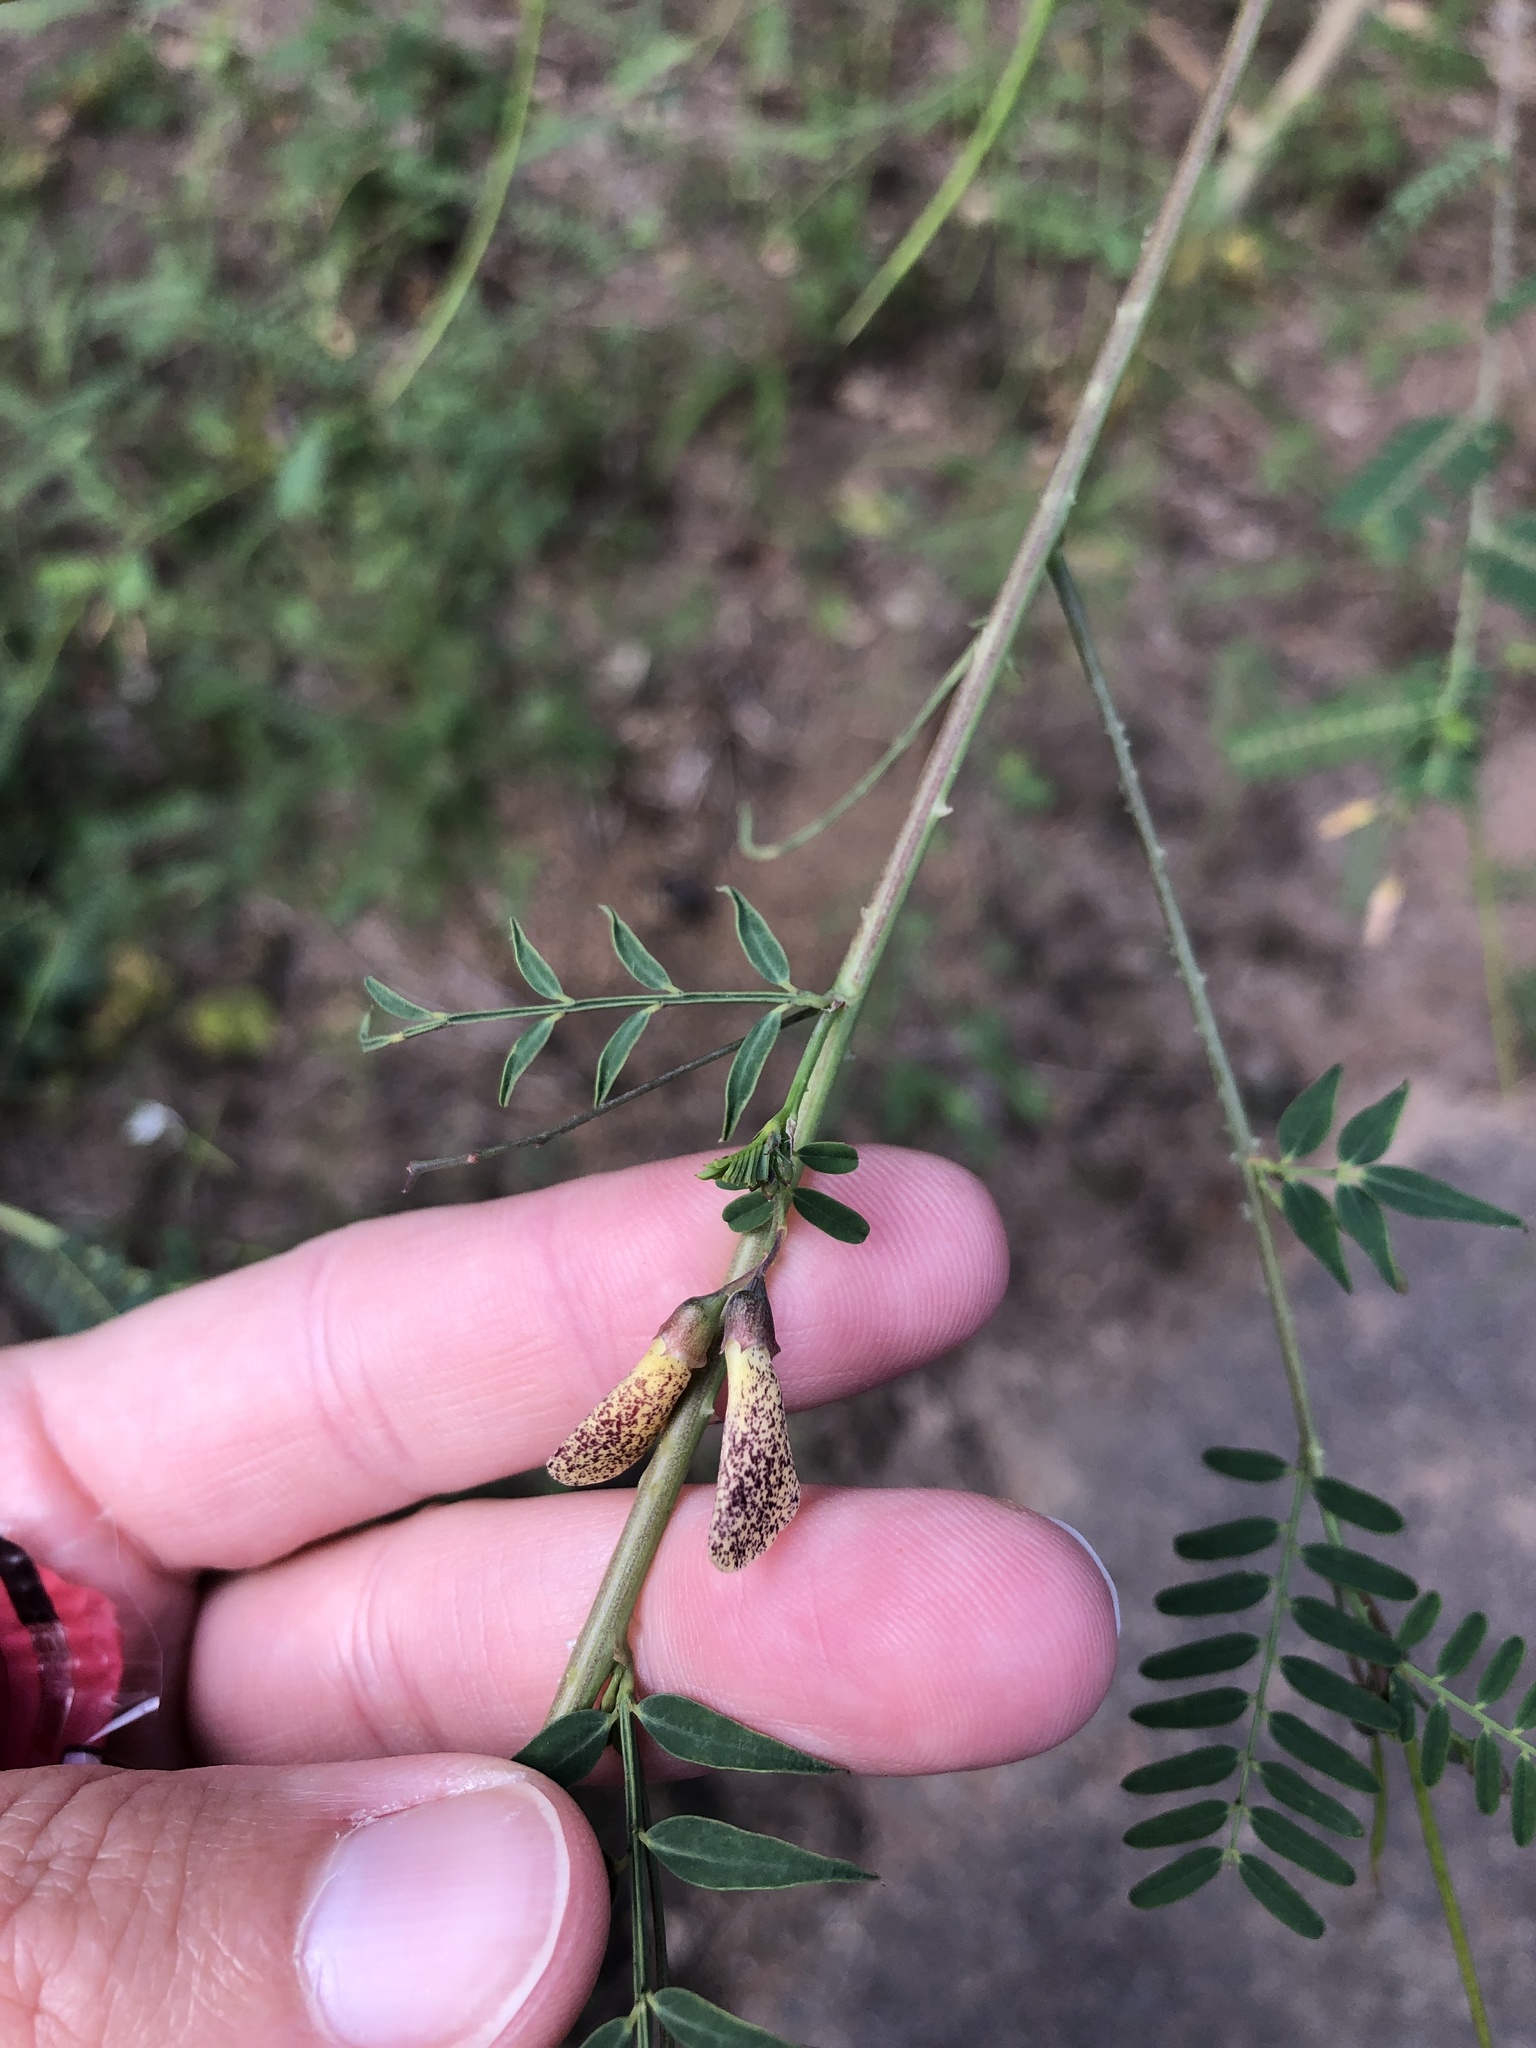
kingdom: Plantae
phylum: Tracheophyta
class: Magnoliopsida
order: Fabales
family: Fabaceae
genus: Sesbania
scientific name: Sesbania bispinosa
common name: Sesbania pea
